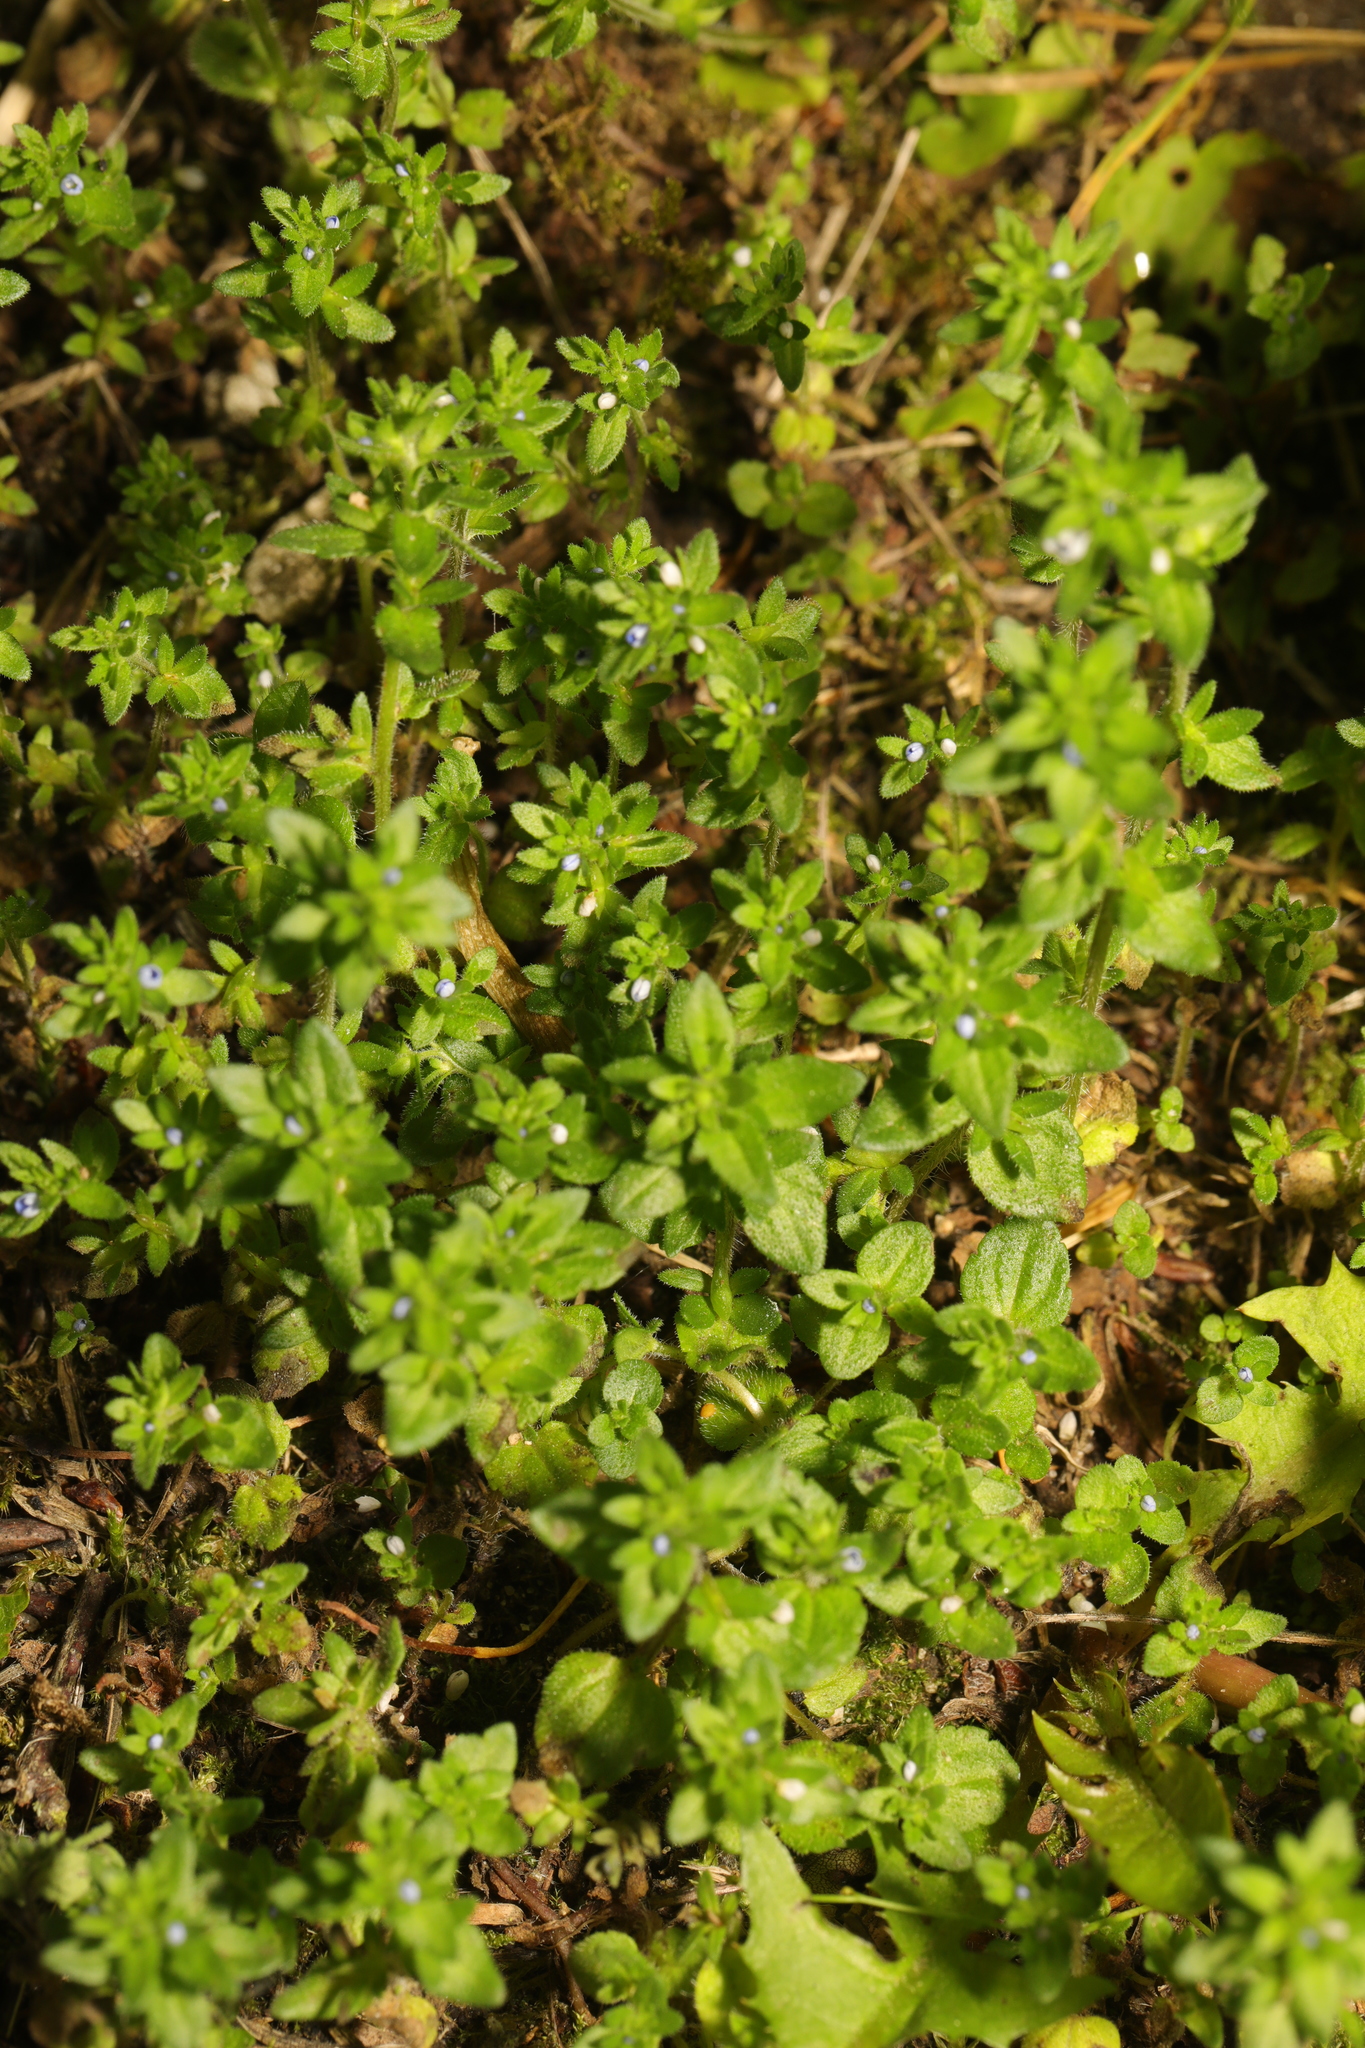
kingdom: Plantae
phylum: Tracheophyta
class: Magnoliopsida
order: Lamiales
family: Plantaginaceae
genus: Veronica
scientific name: Veronica arvensis
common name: Corn speedwell
